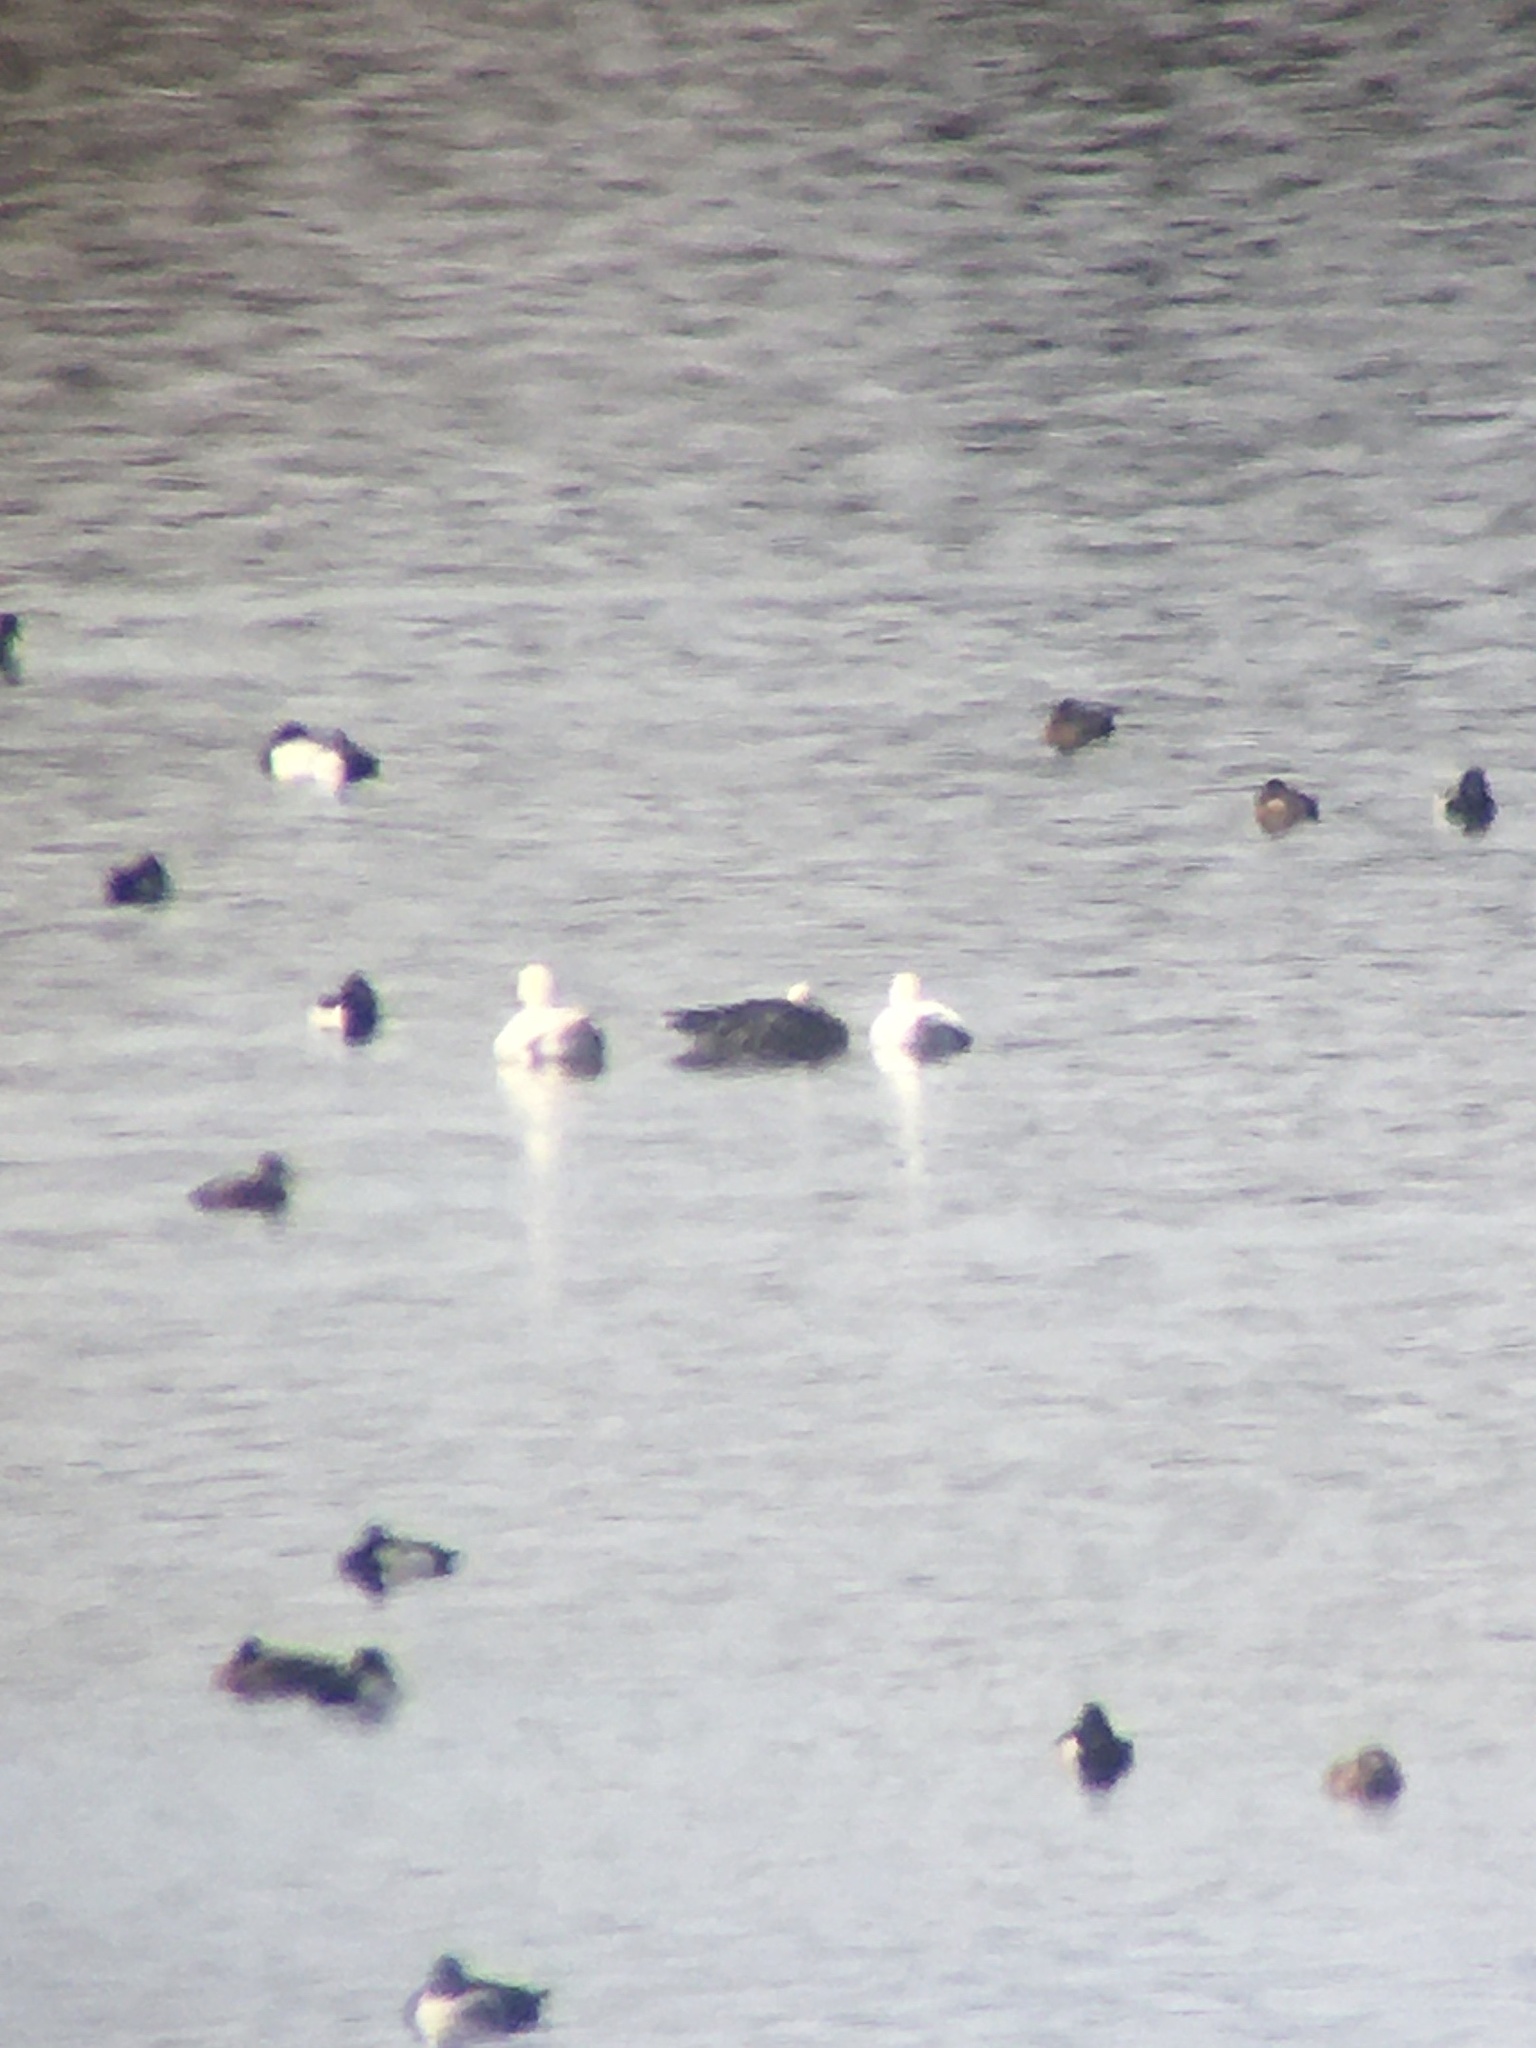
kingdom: Animalia
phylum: Chordata
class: Aves
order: Anseriformes
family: Anatidae
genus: Anser
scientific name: Anser caerulescens
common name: Snow goose
